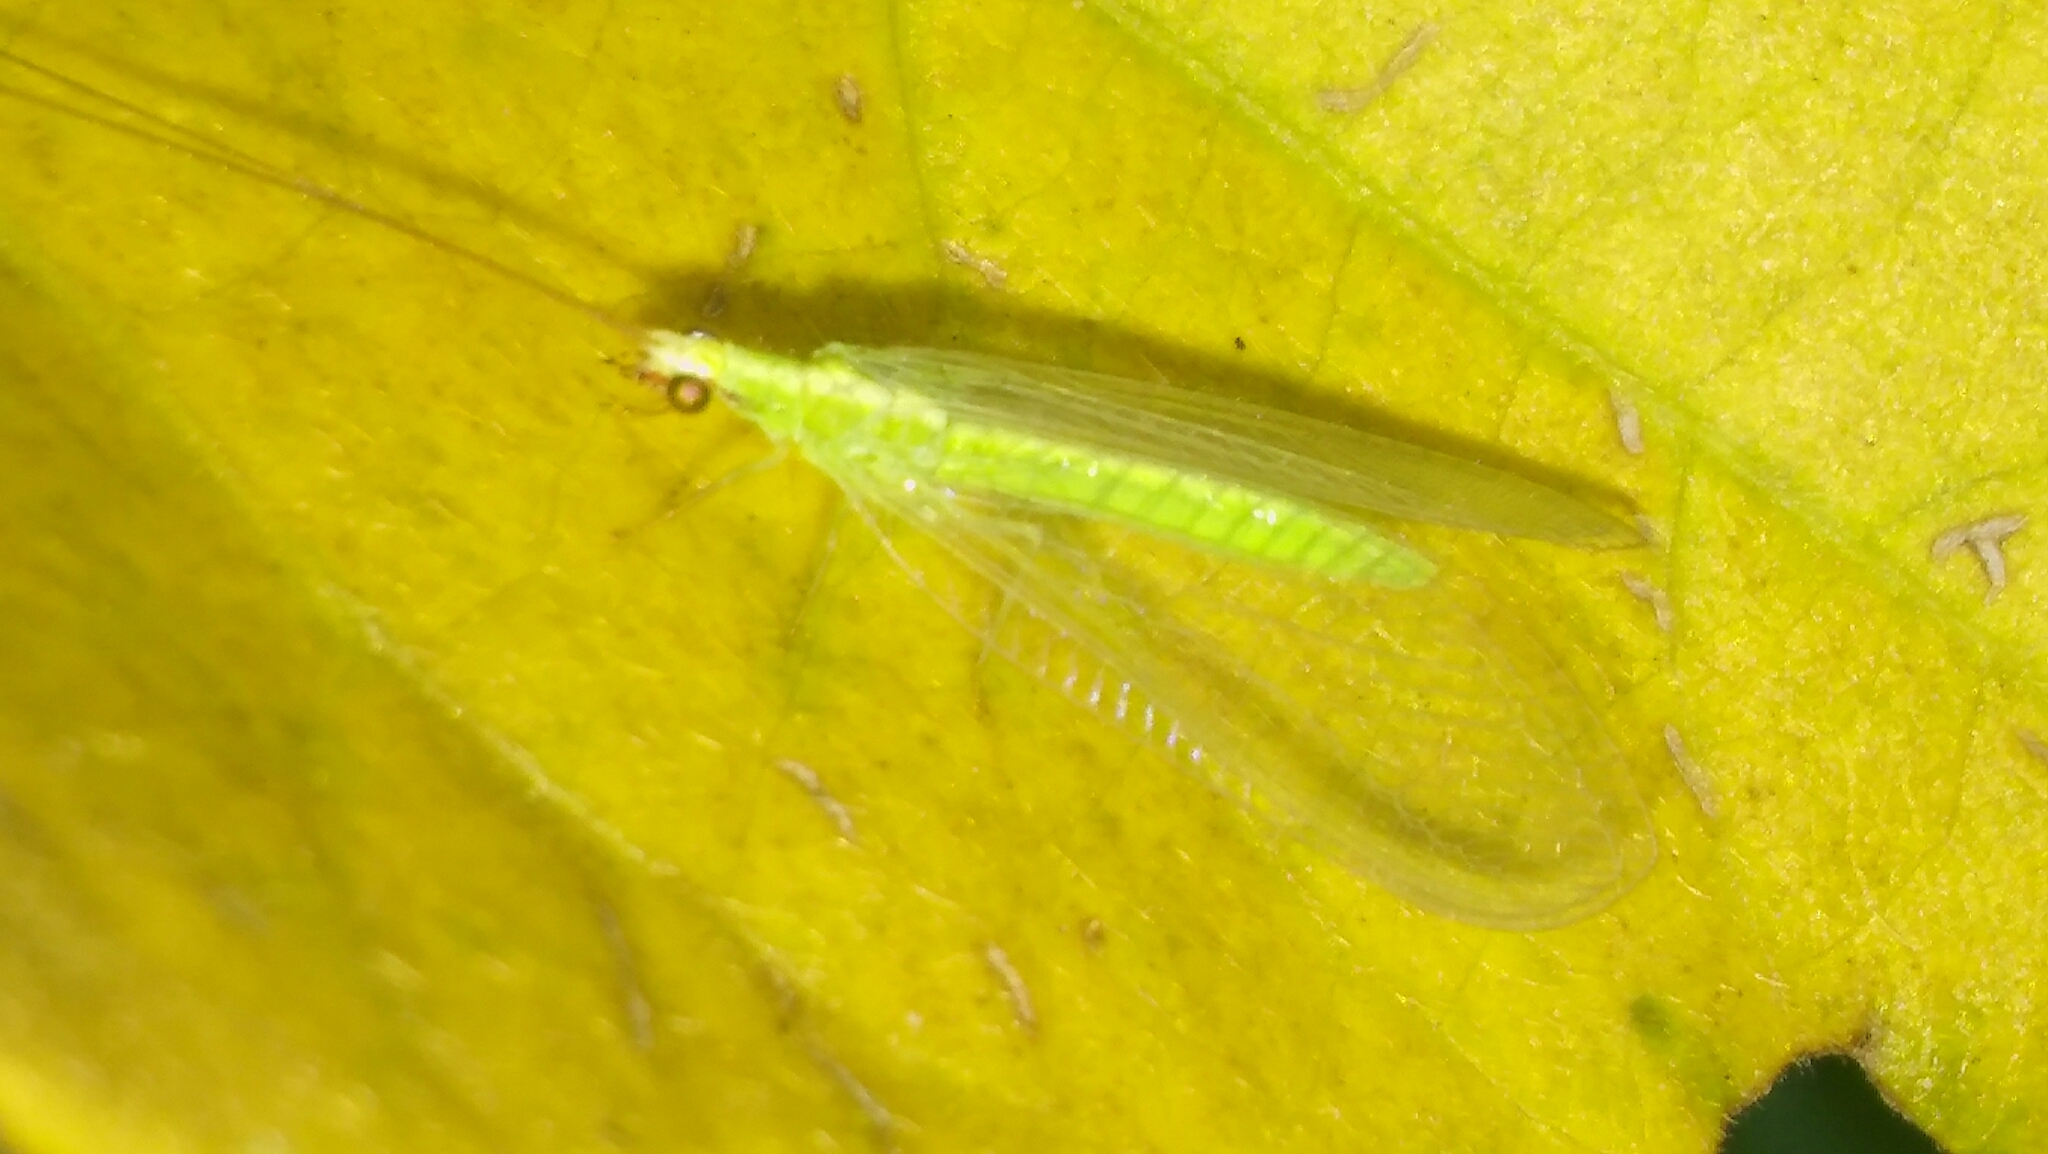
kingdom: Animalia
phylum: Arthropoda
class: Insecta
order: Neuroptera
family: Chrysopidae
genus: Chrysoperla
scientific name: Chrysoperla externa
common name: Green lacewing
